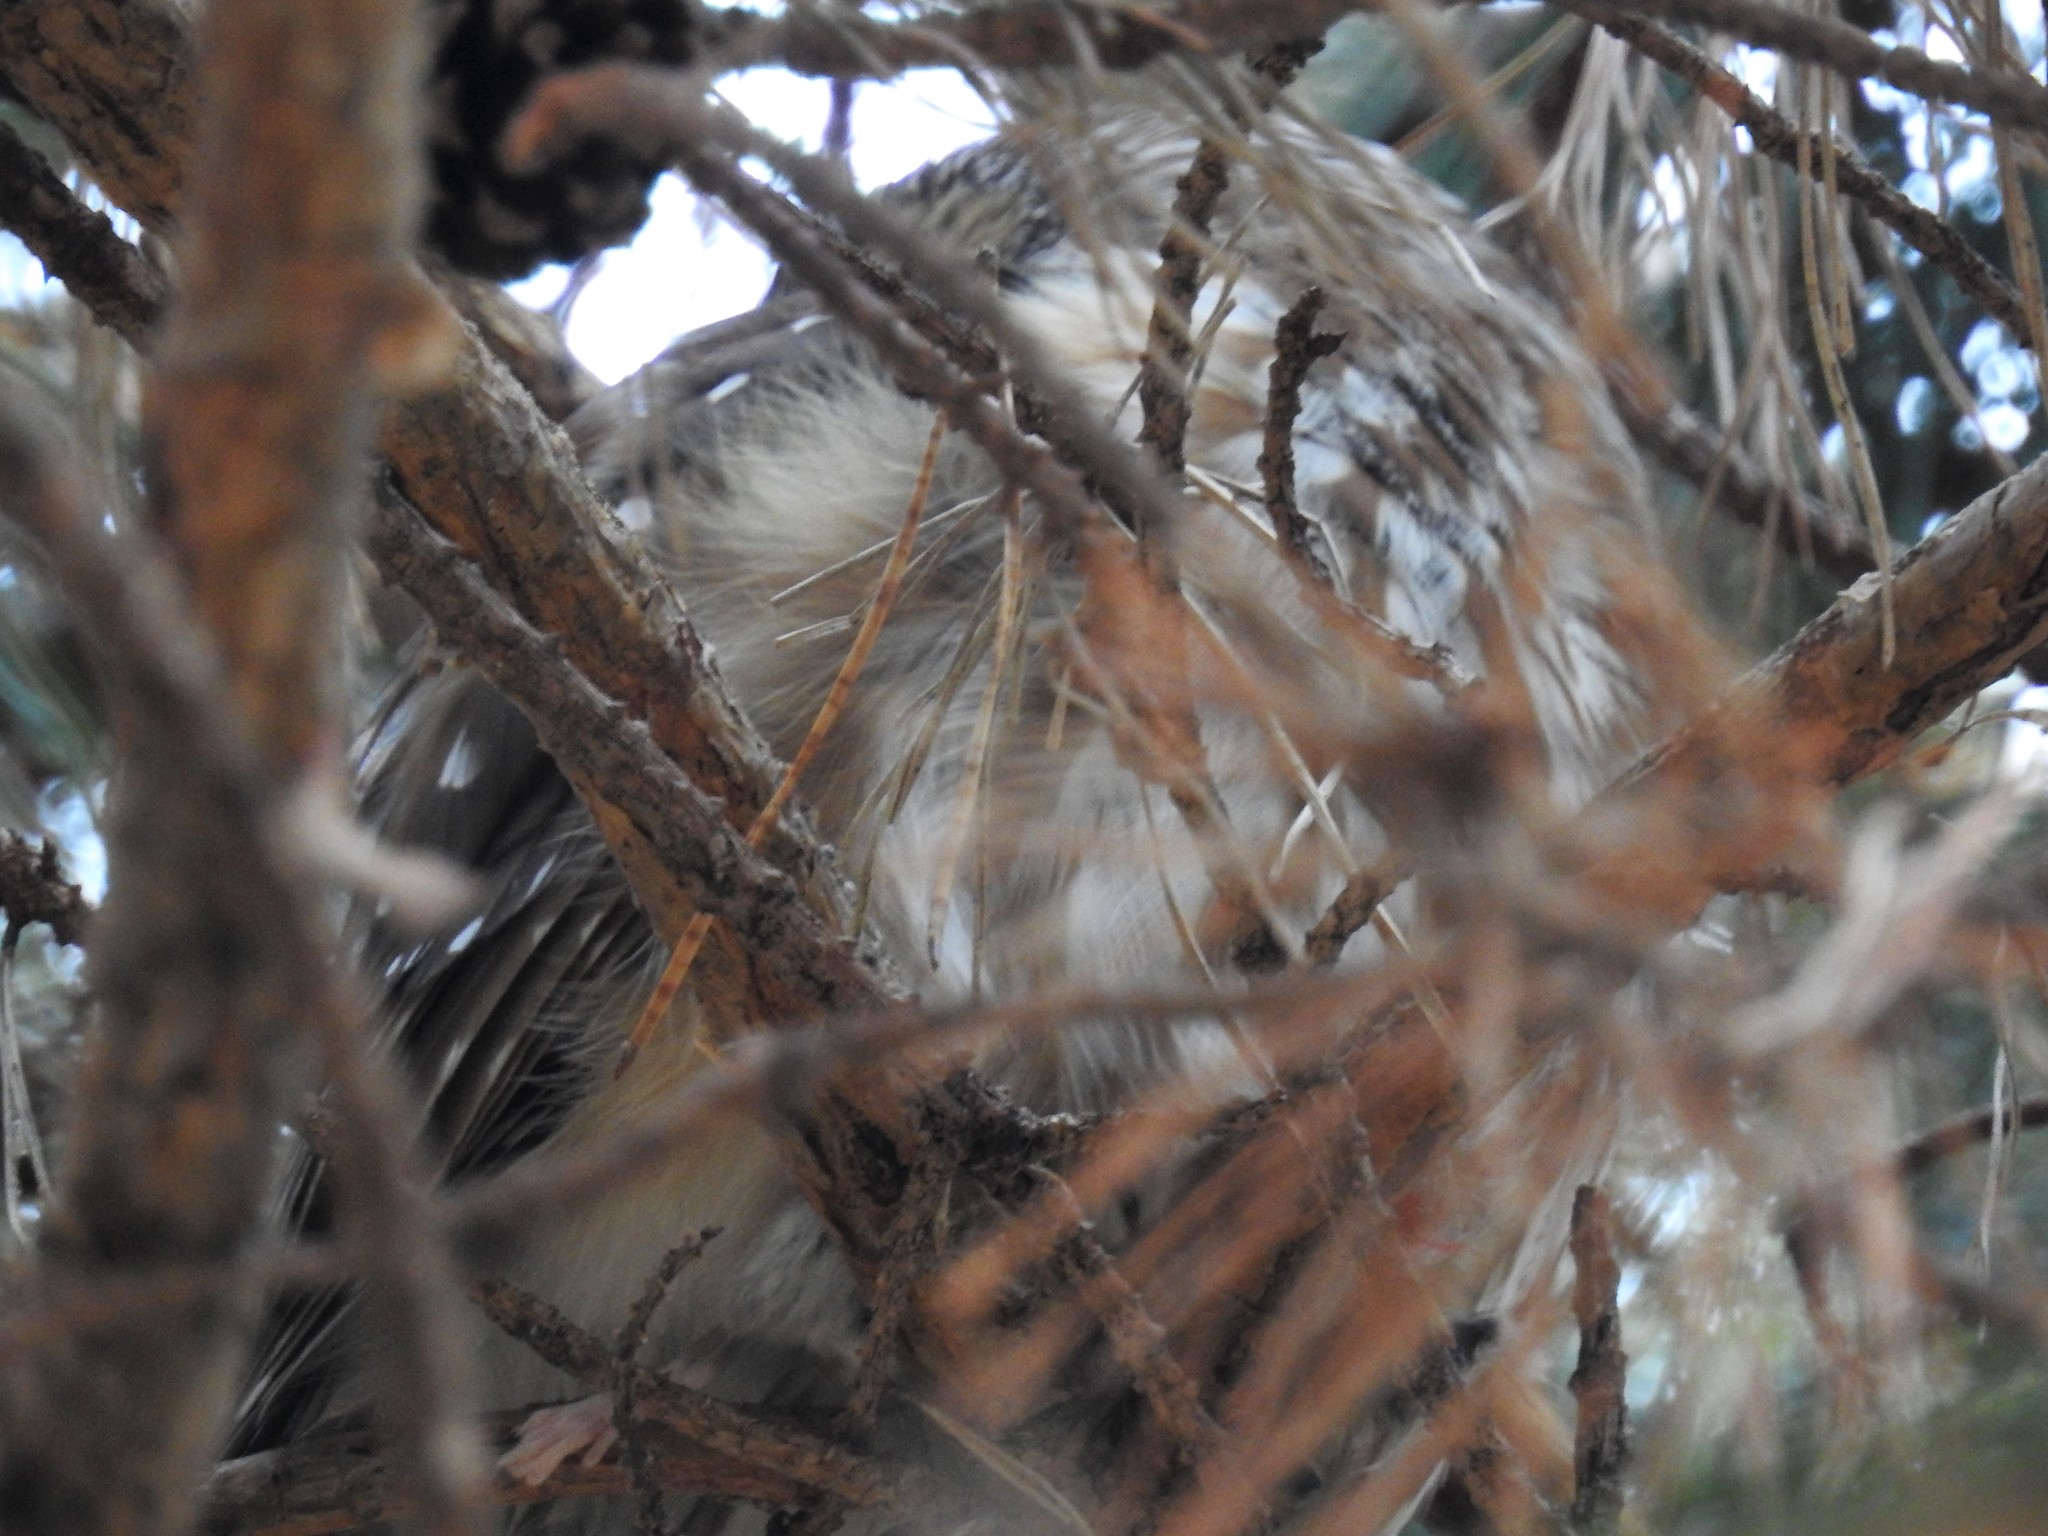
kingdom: Animalia
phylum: Chordata
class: Aves
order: Strigiformes
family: Strigidae
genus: Aegolius
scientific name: Aegolius acadicus
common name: Northern saw-whet owl
